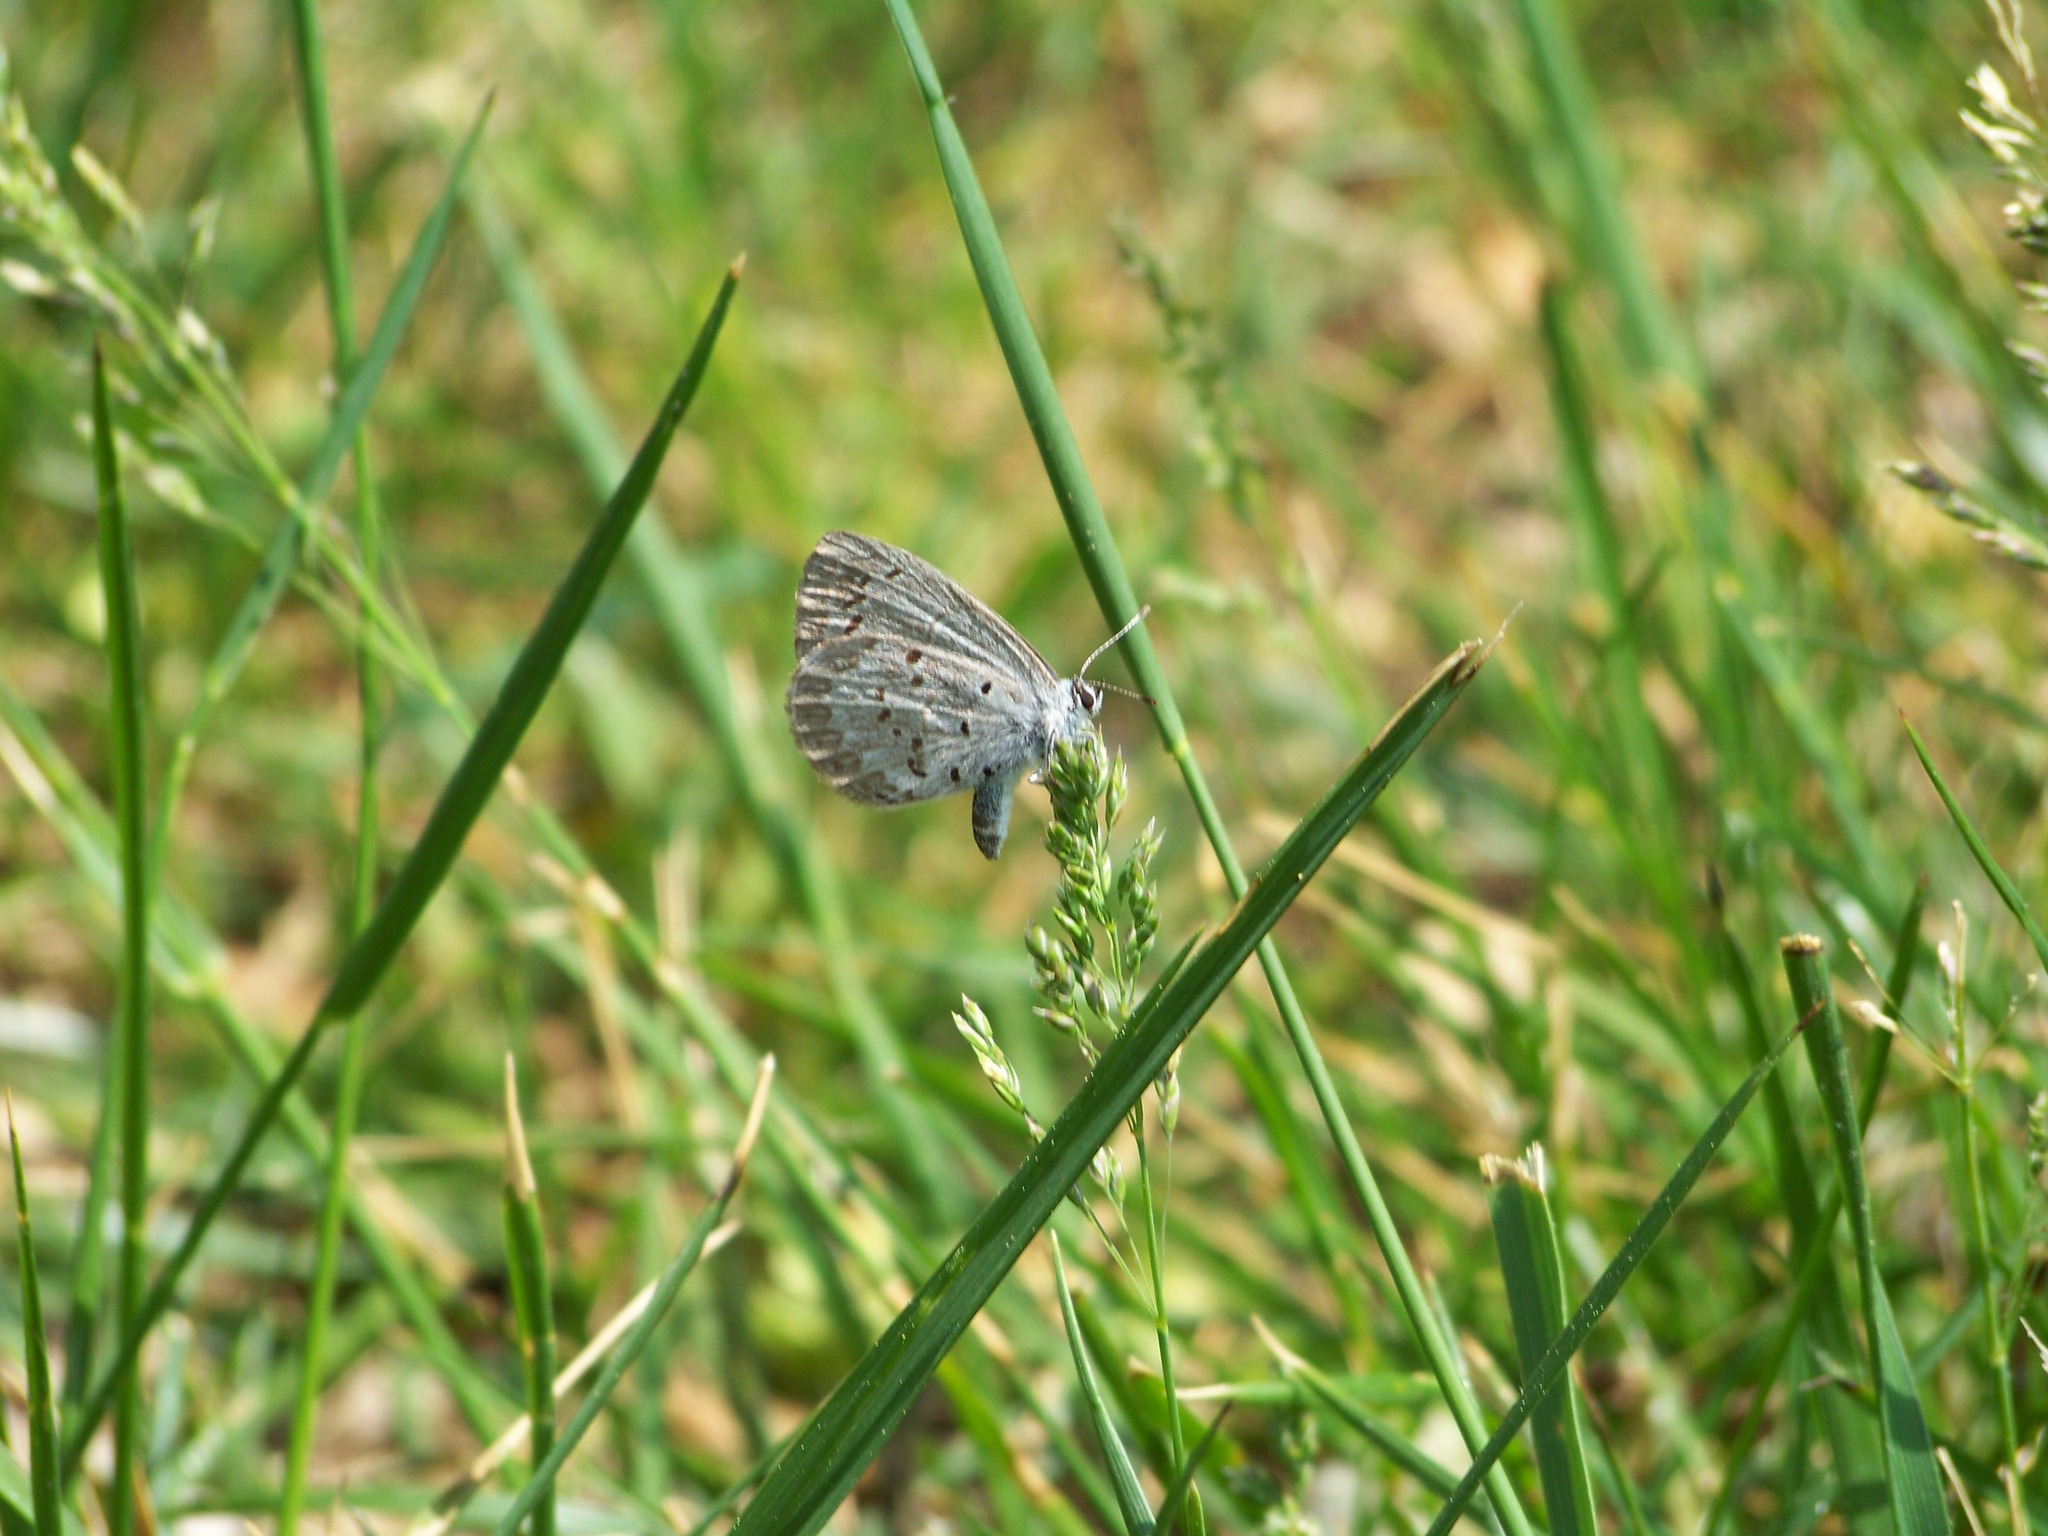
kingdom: Animalia
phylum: Arthropoda
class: Insecta
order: Lepidoptera
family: Lycaenidae
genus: Celastrina
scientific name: Celastrina
